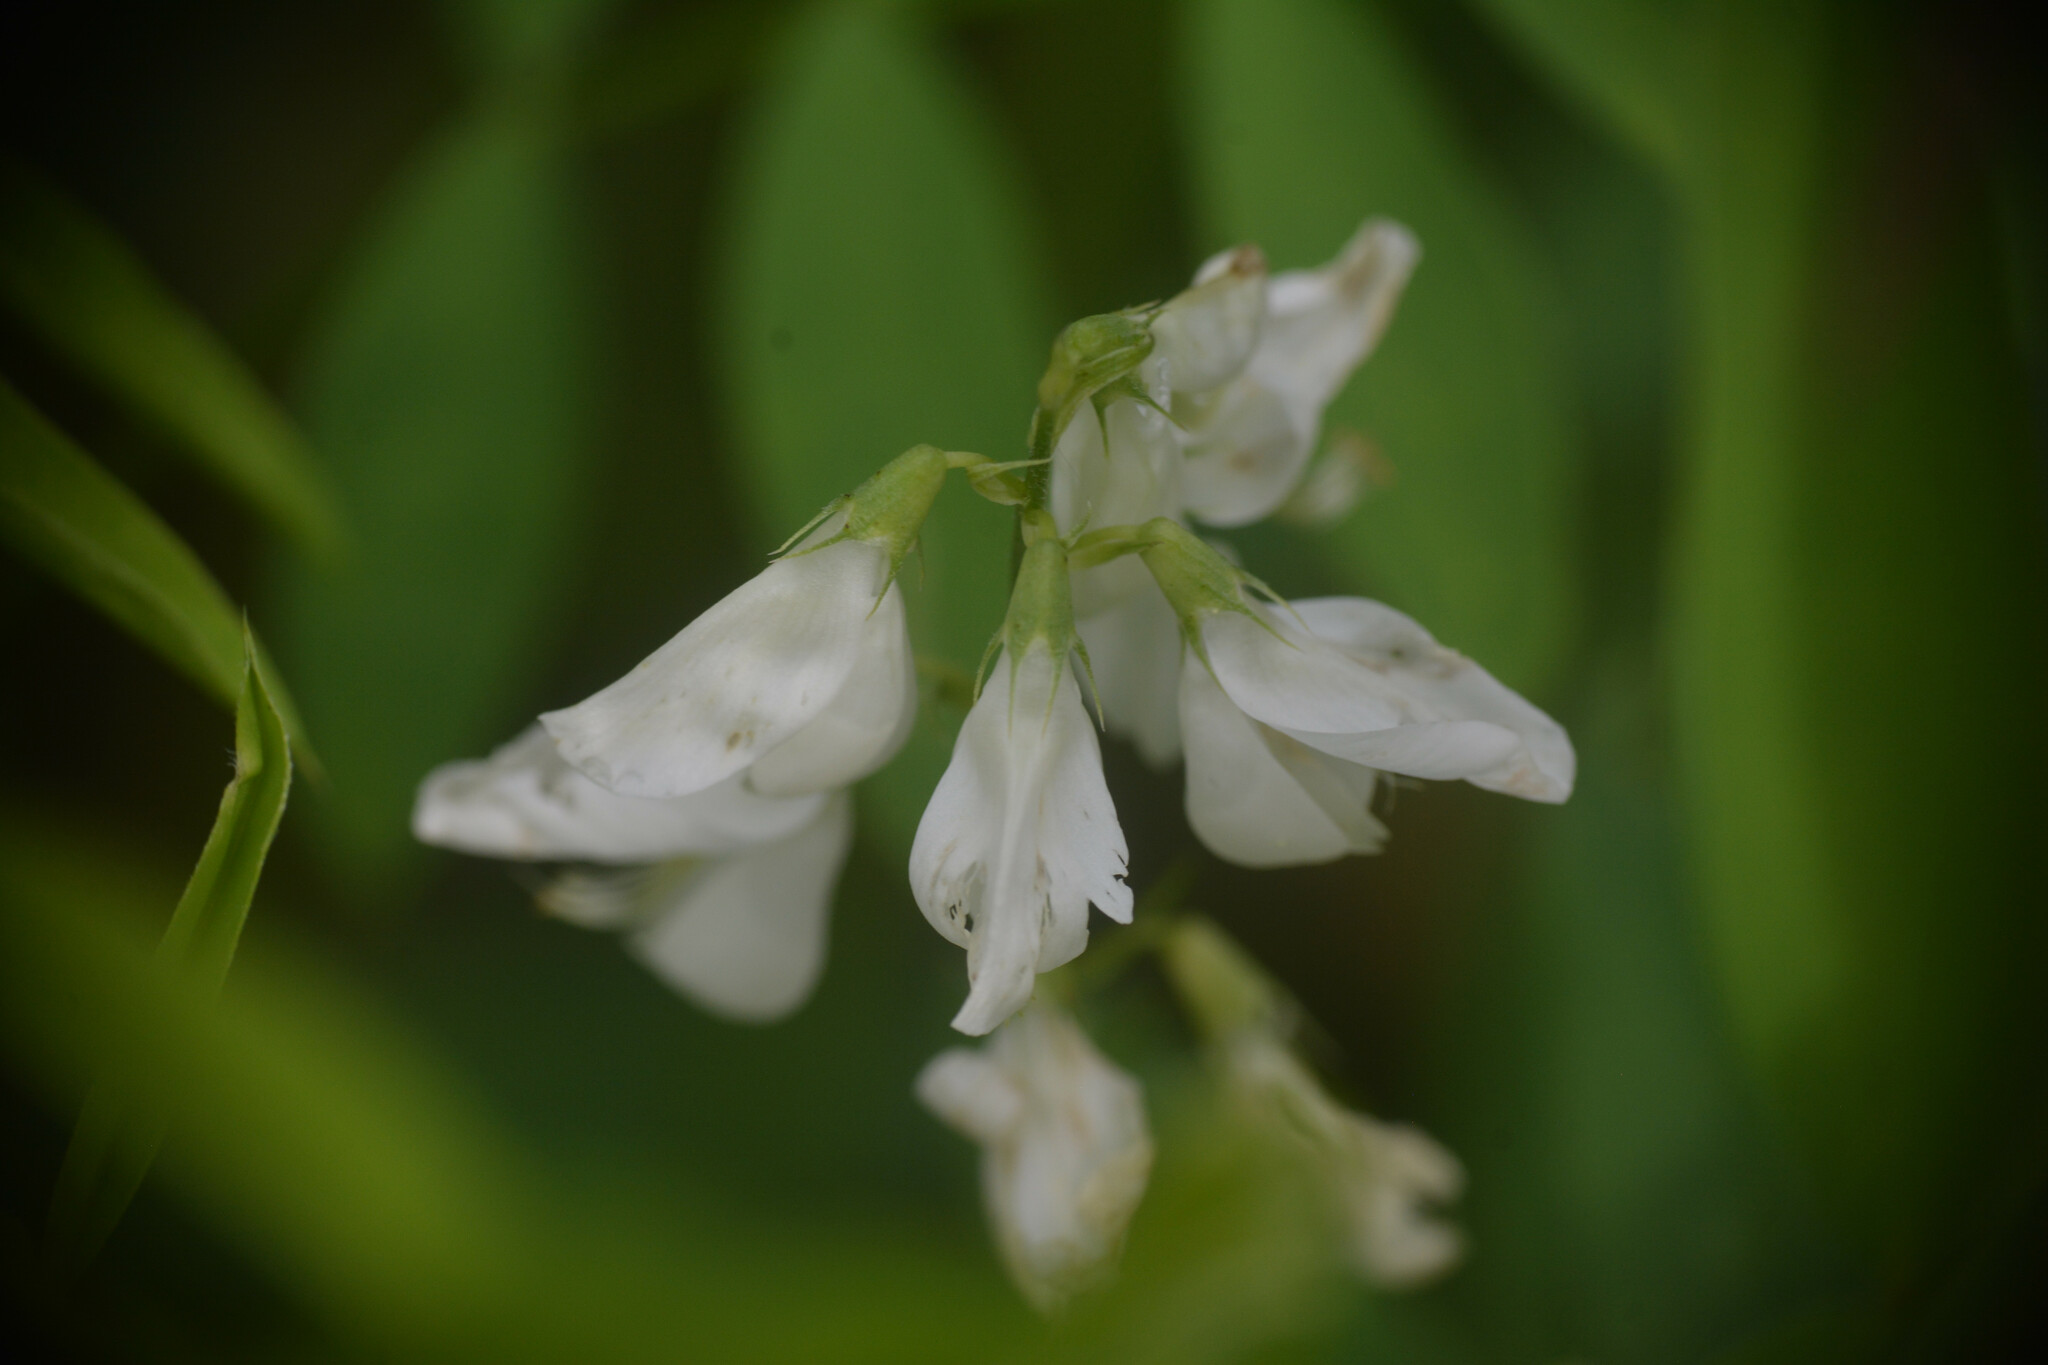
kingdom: Plantae
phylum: Tracheophyta
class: Magnoliopsida
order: Fabales
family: Fabaceae
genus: Galega
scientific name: Galega officinalis
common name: Goat's-rue
